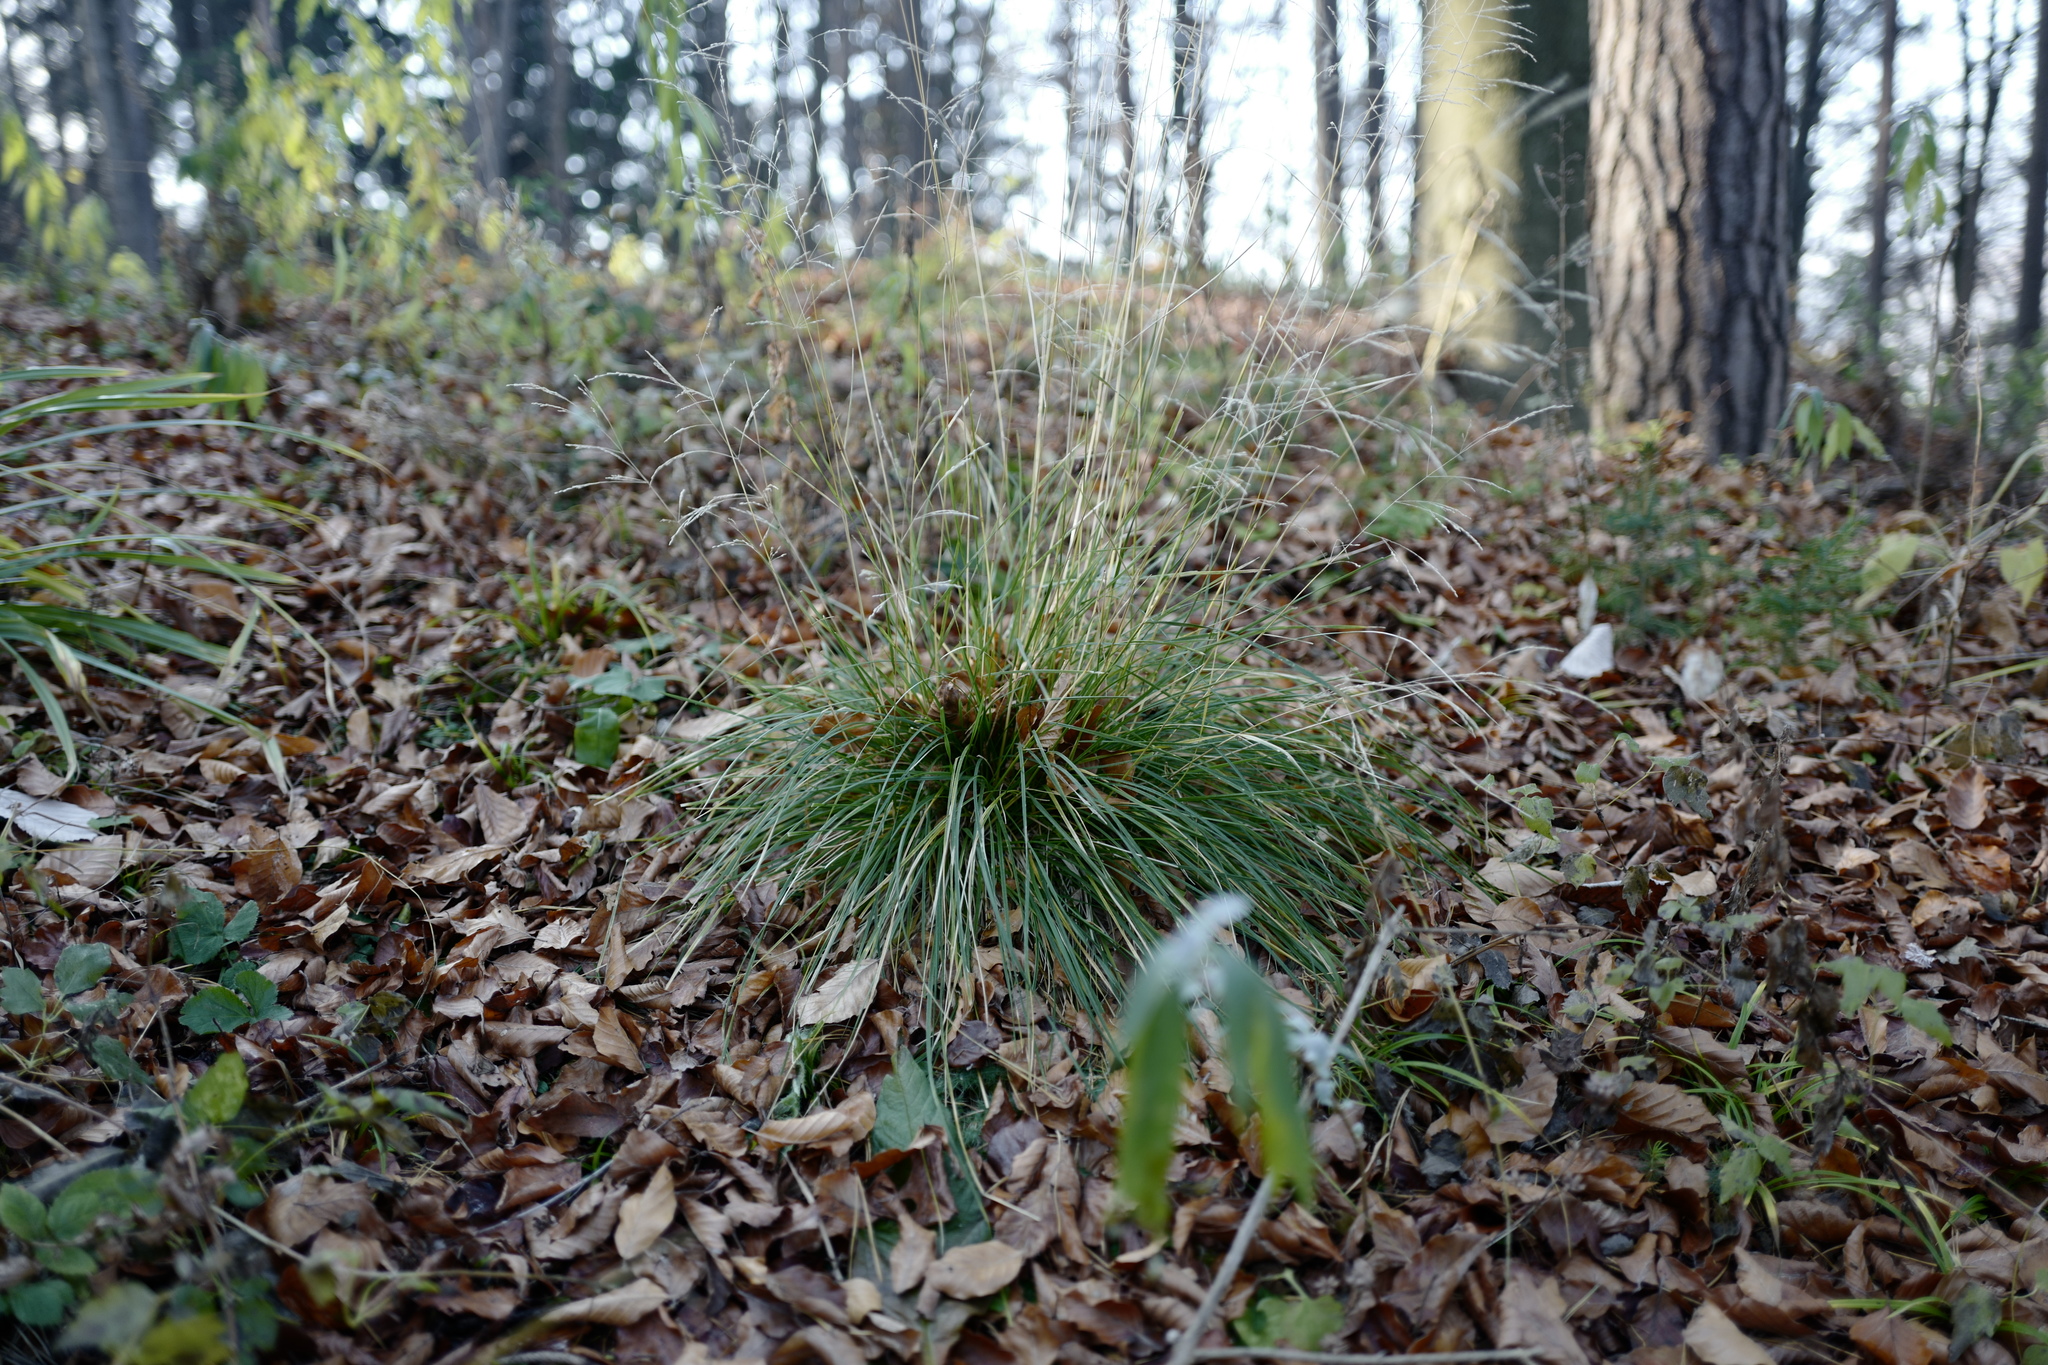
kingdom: Plantae
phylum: Tracheophyta
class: Liliopsida
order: Poales
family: Poaceae
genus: Deschampsia
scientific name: Deschampsia cespitosa
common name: Tufted hair-grass
